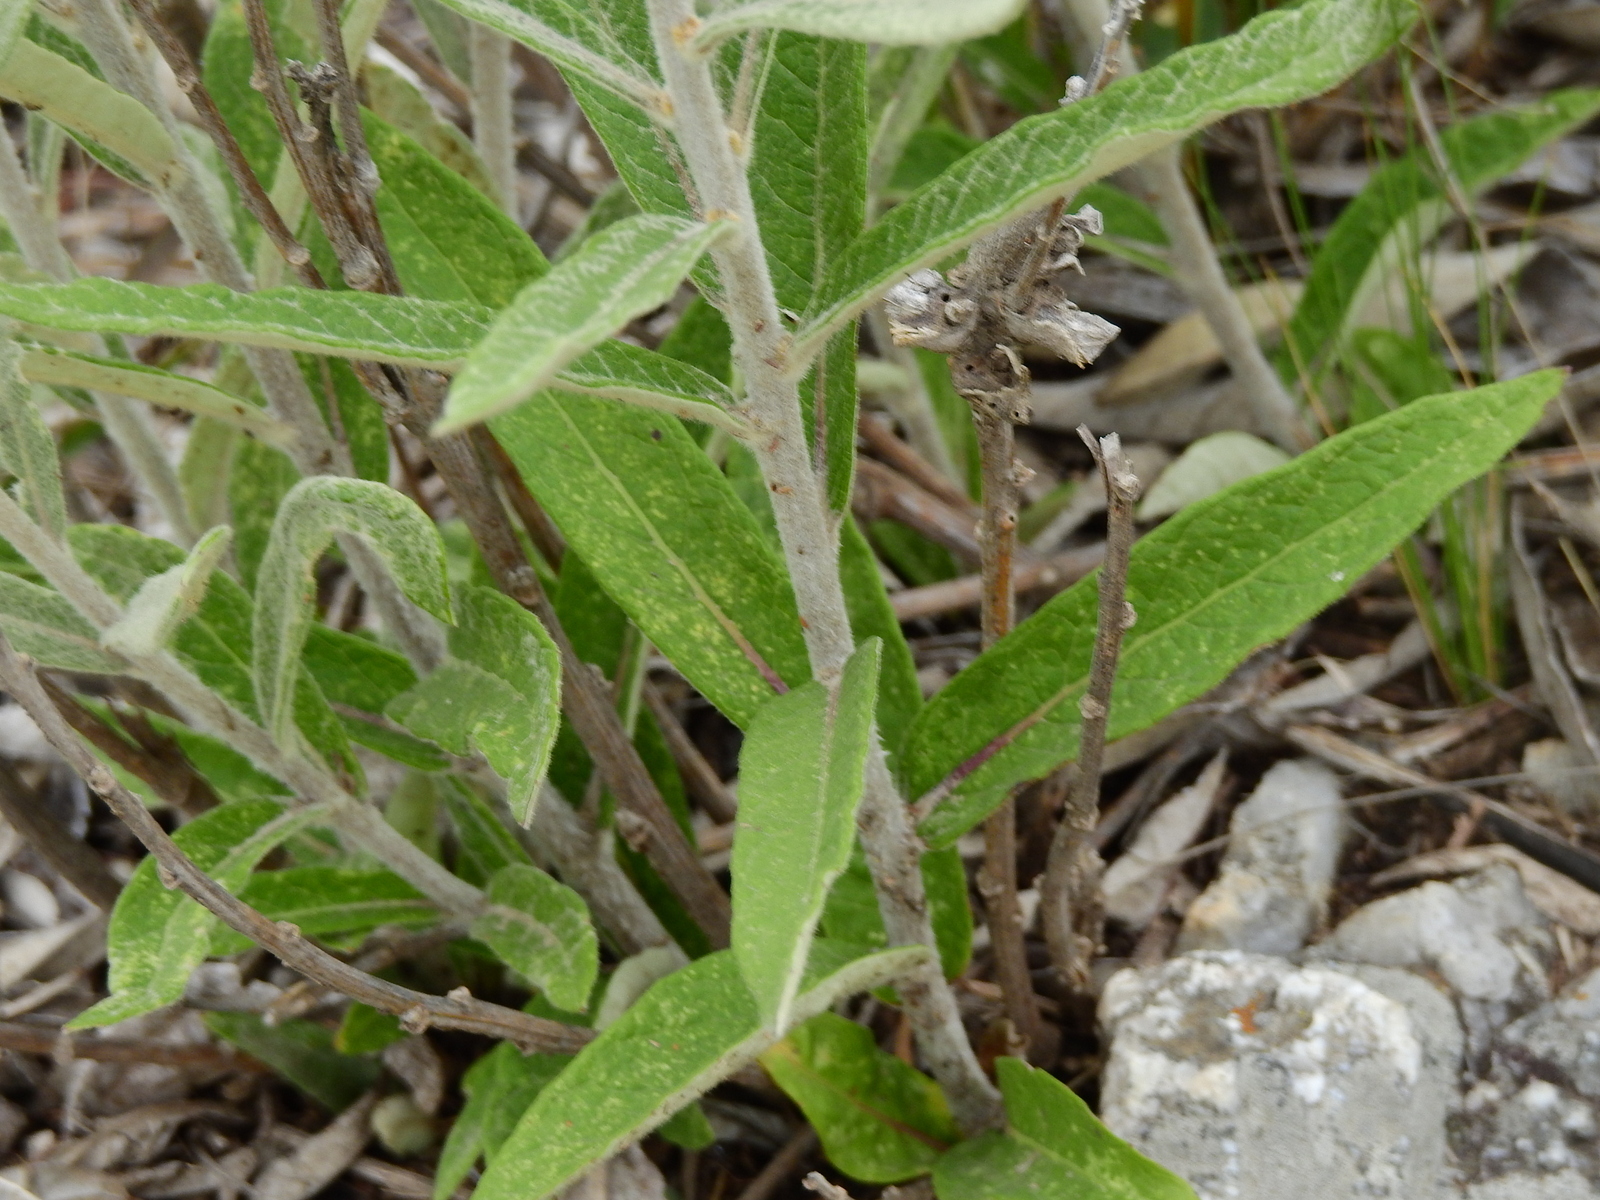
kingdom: Plantae
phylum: Tracheophyta
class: Magnoliopsida
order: Asterales
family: Asteraceae
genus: Lessingianthus
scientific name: Lessingianthus mollissimus
